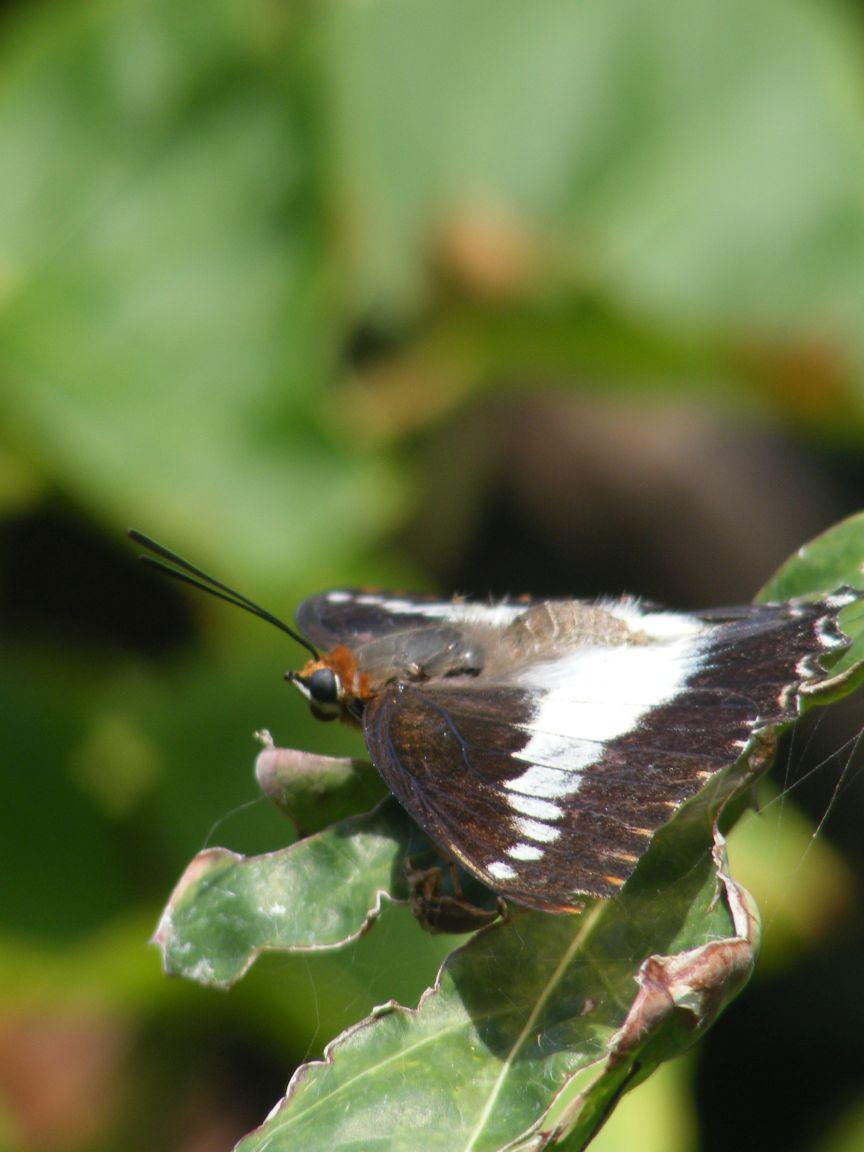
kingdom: Animalia
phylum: Arthropoda
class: Insecta
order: Lepidoptera
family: Nymphalidae
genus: Charaxes
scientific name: Charaxes brutus
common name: White-barred charaxes
